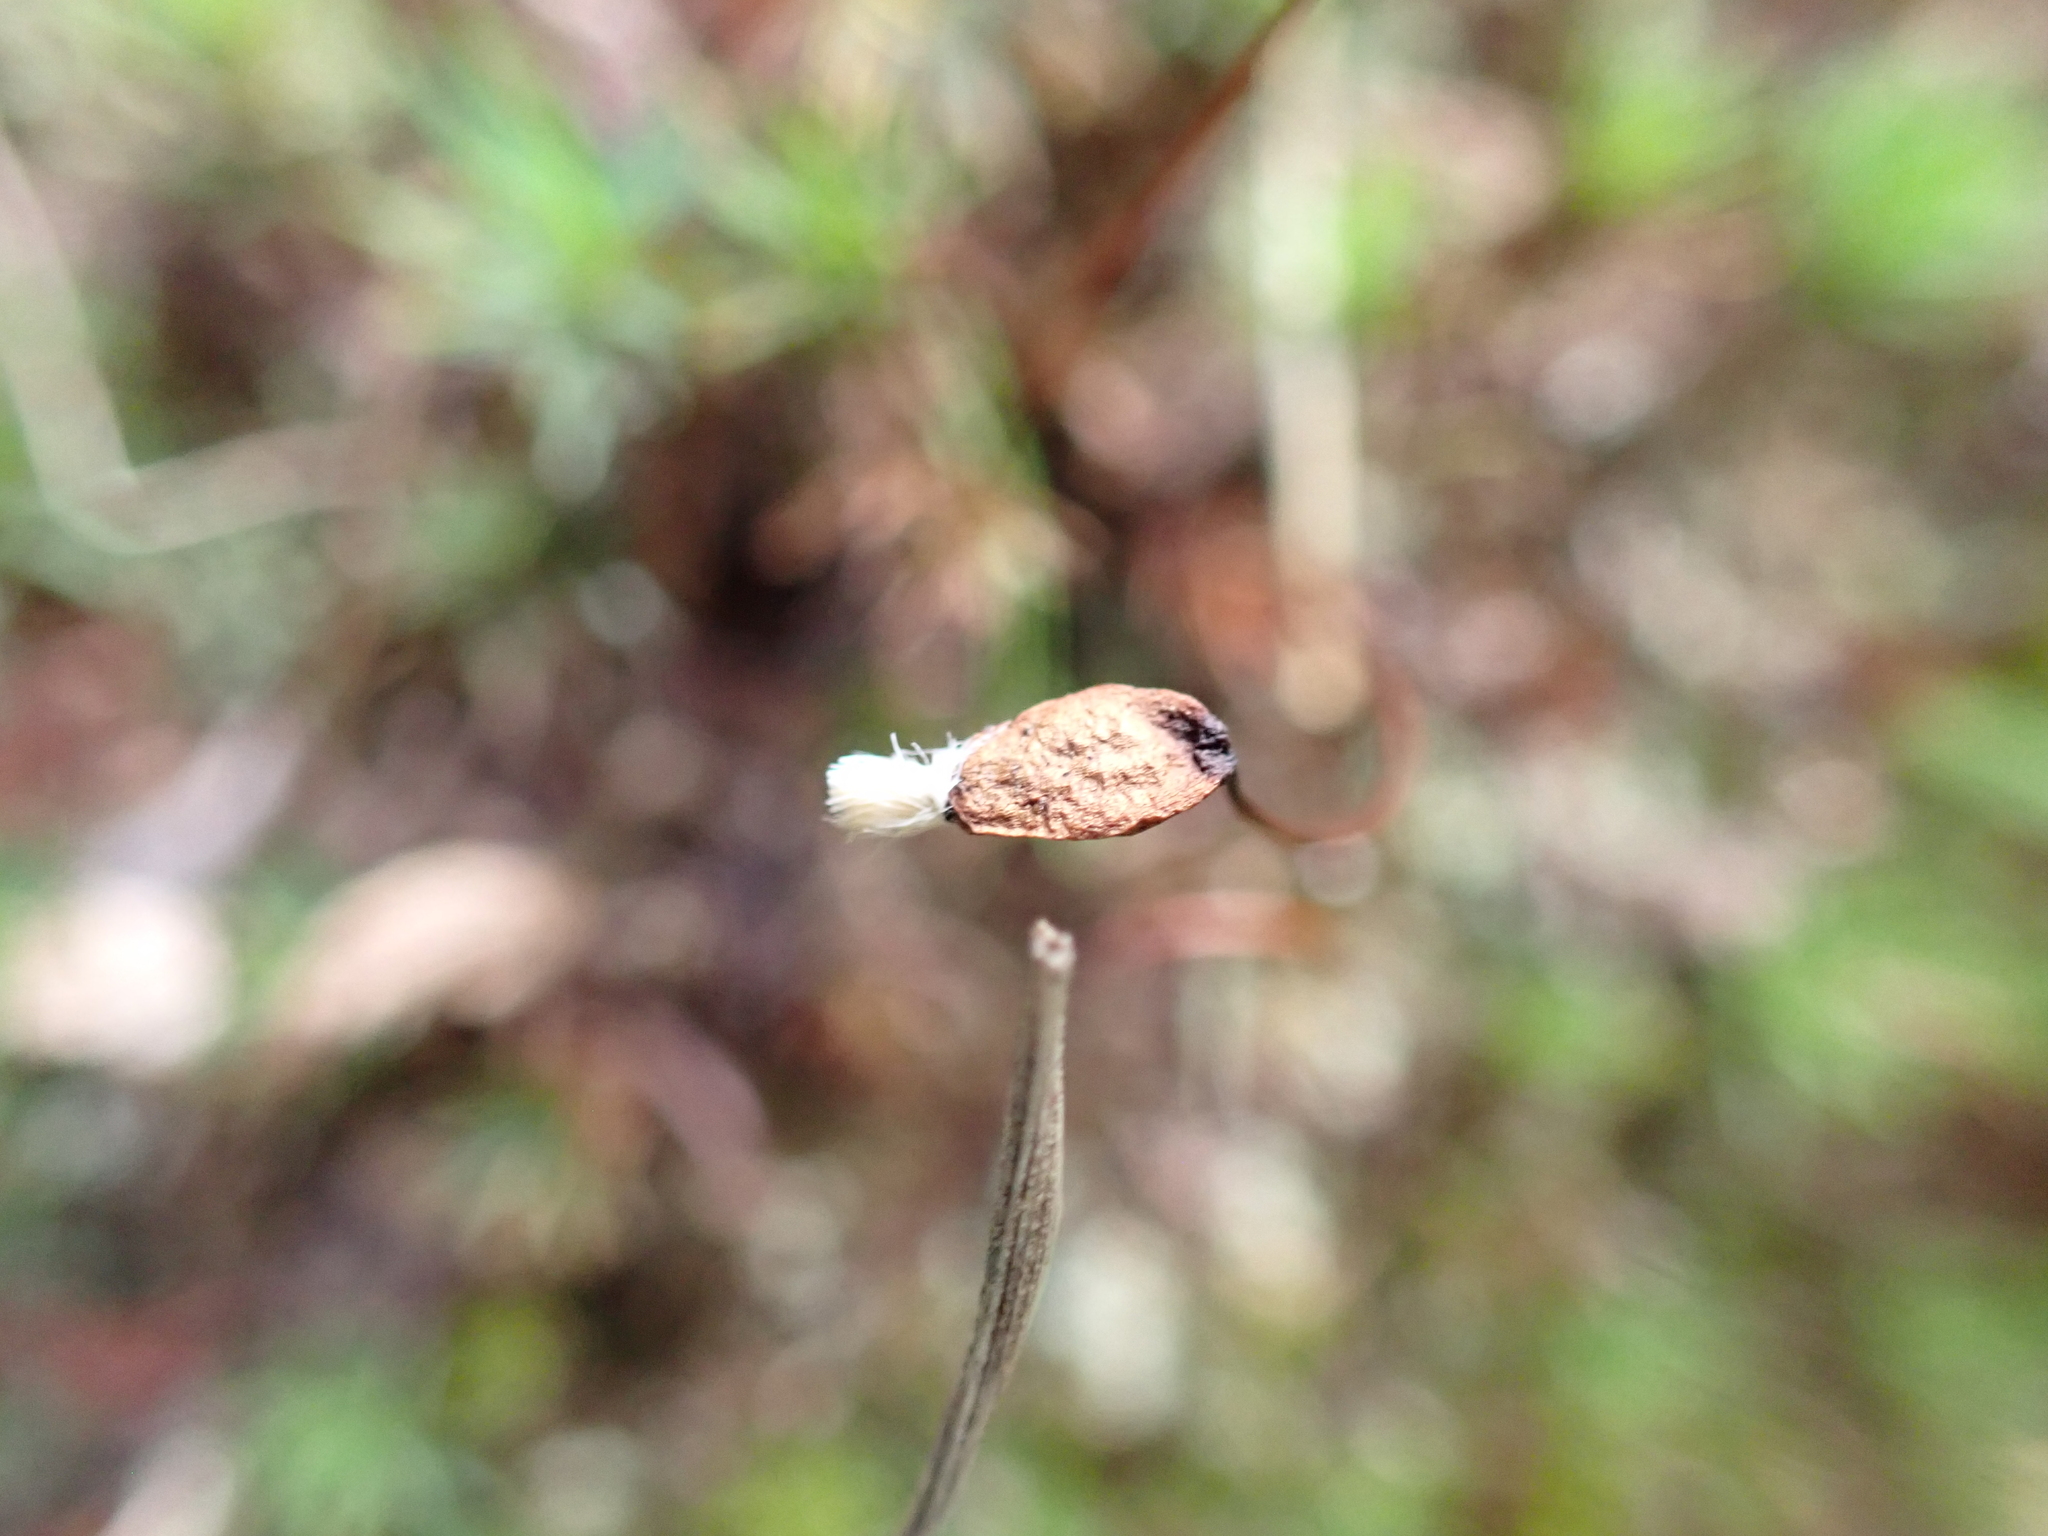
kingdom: Plantae
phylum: Bryophyta
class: Polytrichopsida
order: Polytrichales
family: Polytrichaceae
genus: Dawsonia
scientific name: Dawsonia longiseta
